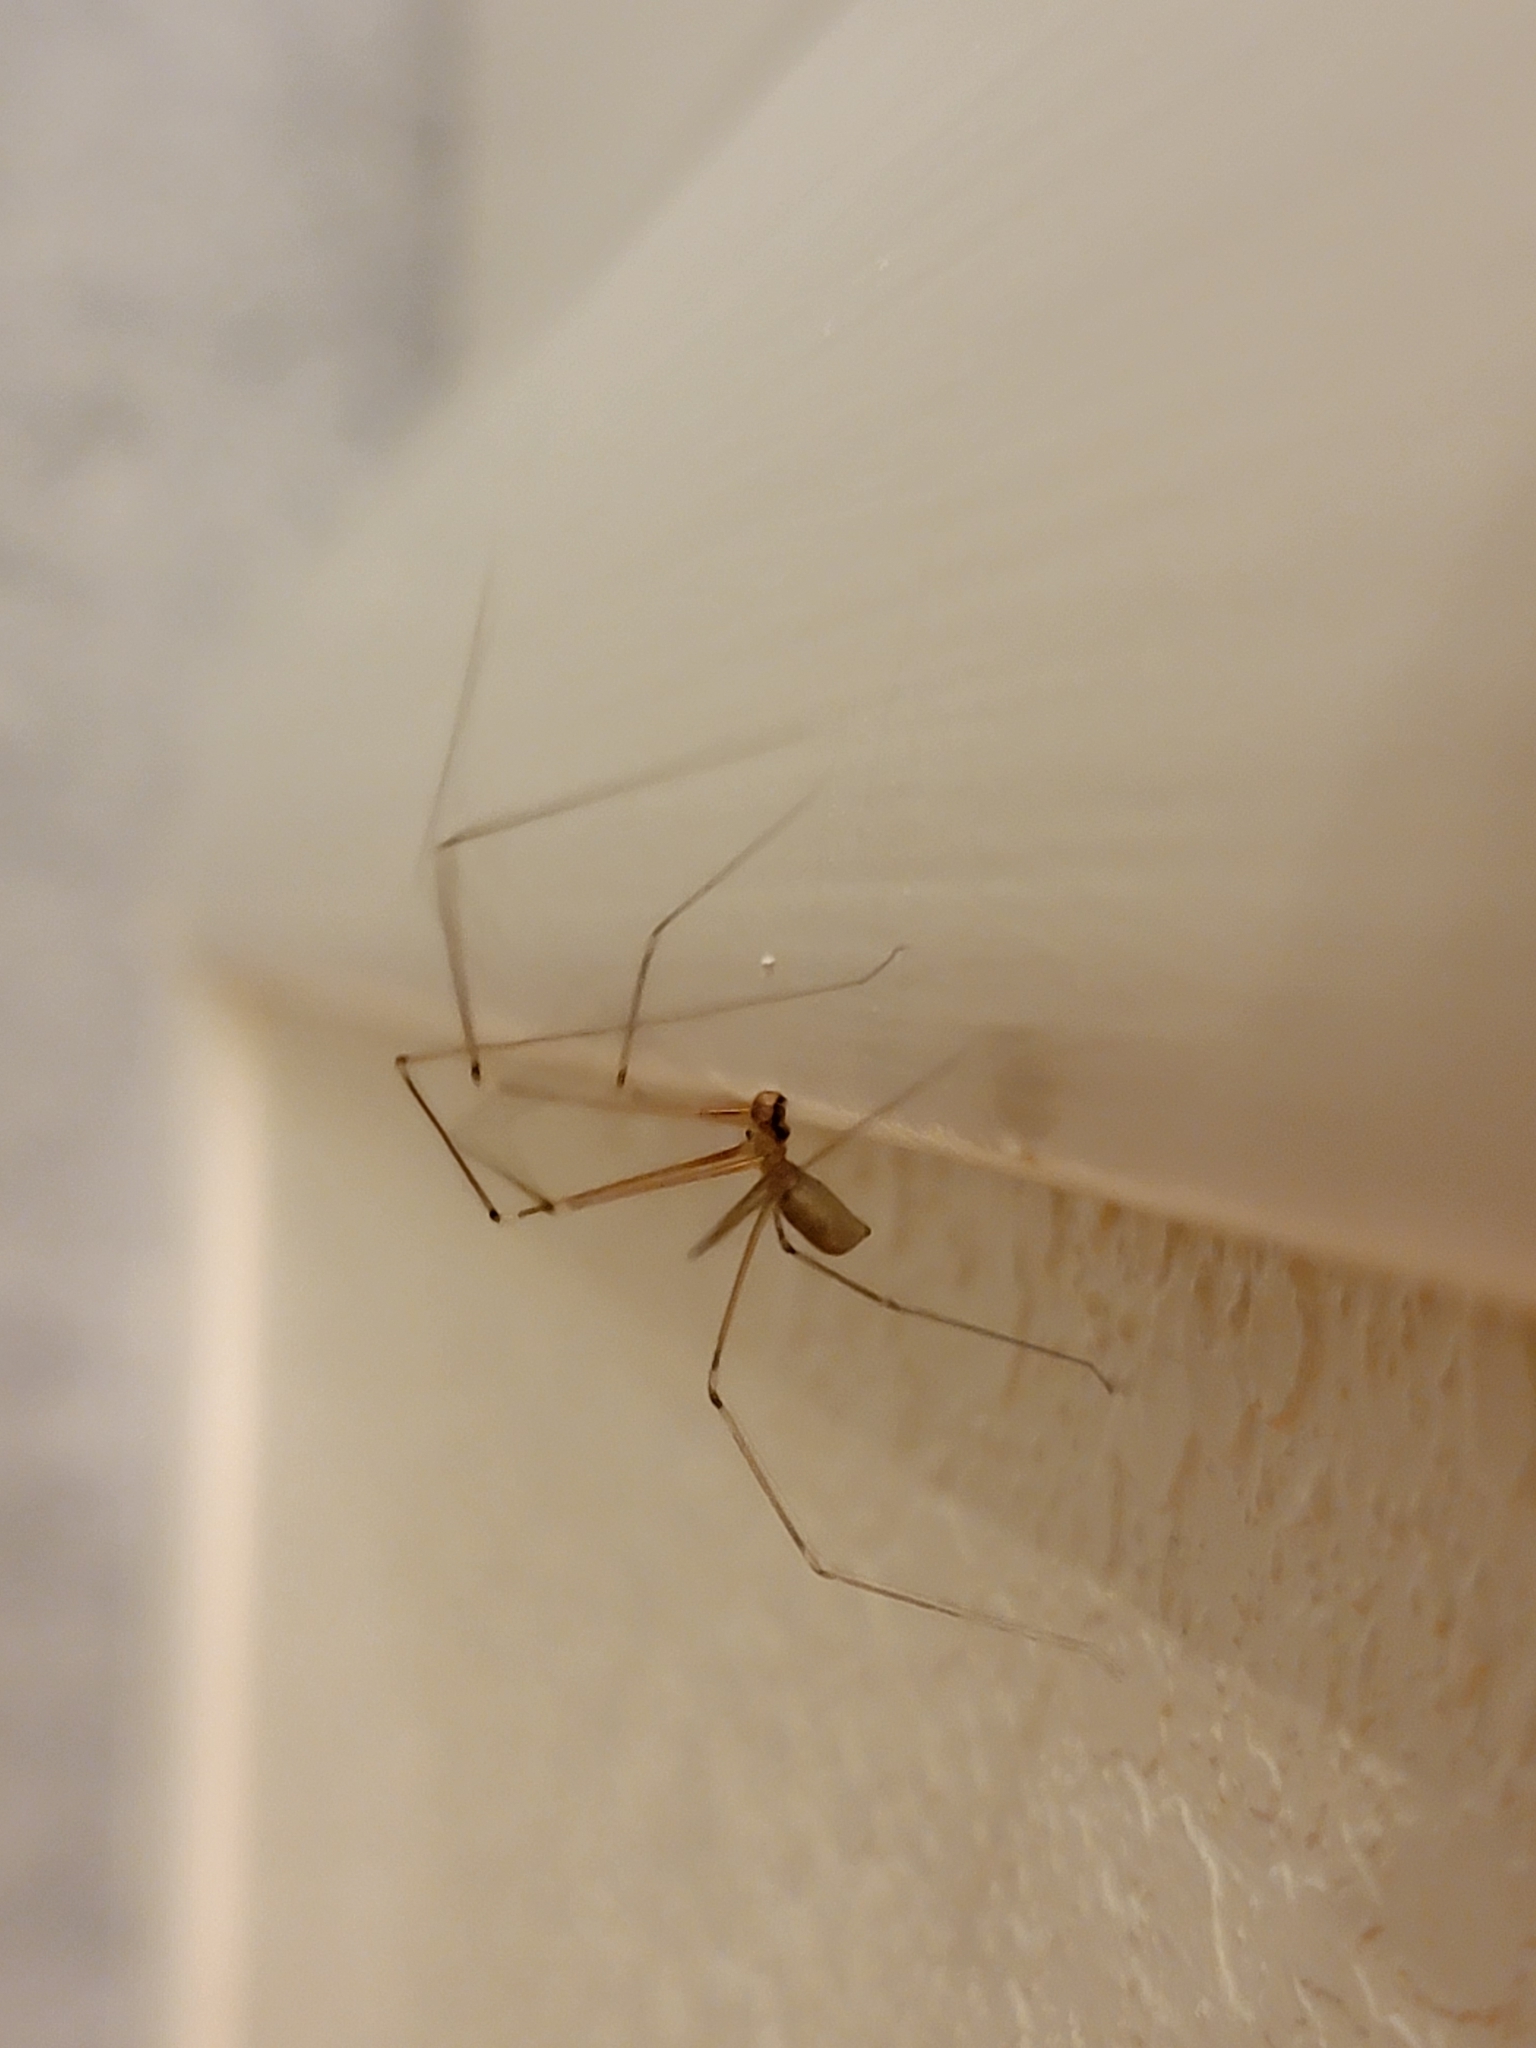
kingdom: Animalia
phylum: Arthropoda
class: Arachnida
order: Araneae
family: Pholcidae
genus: Pholcus
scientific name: Pholcus phalangioides
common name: Longbodied cellar spider
